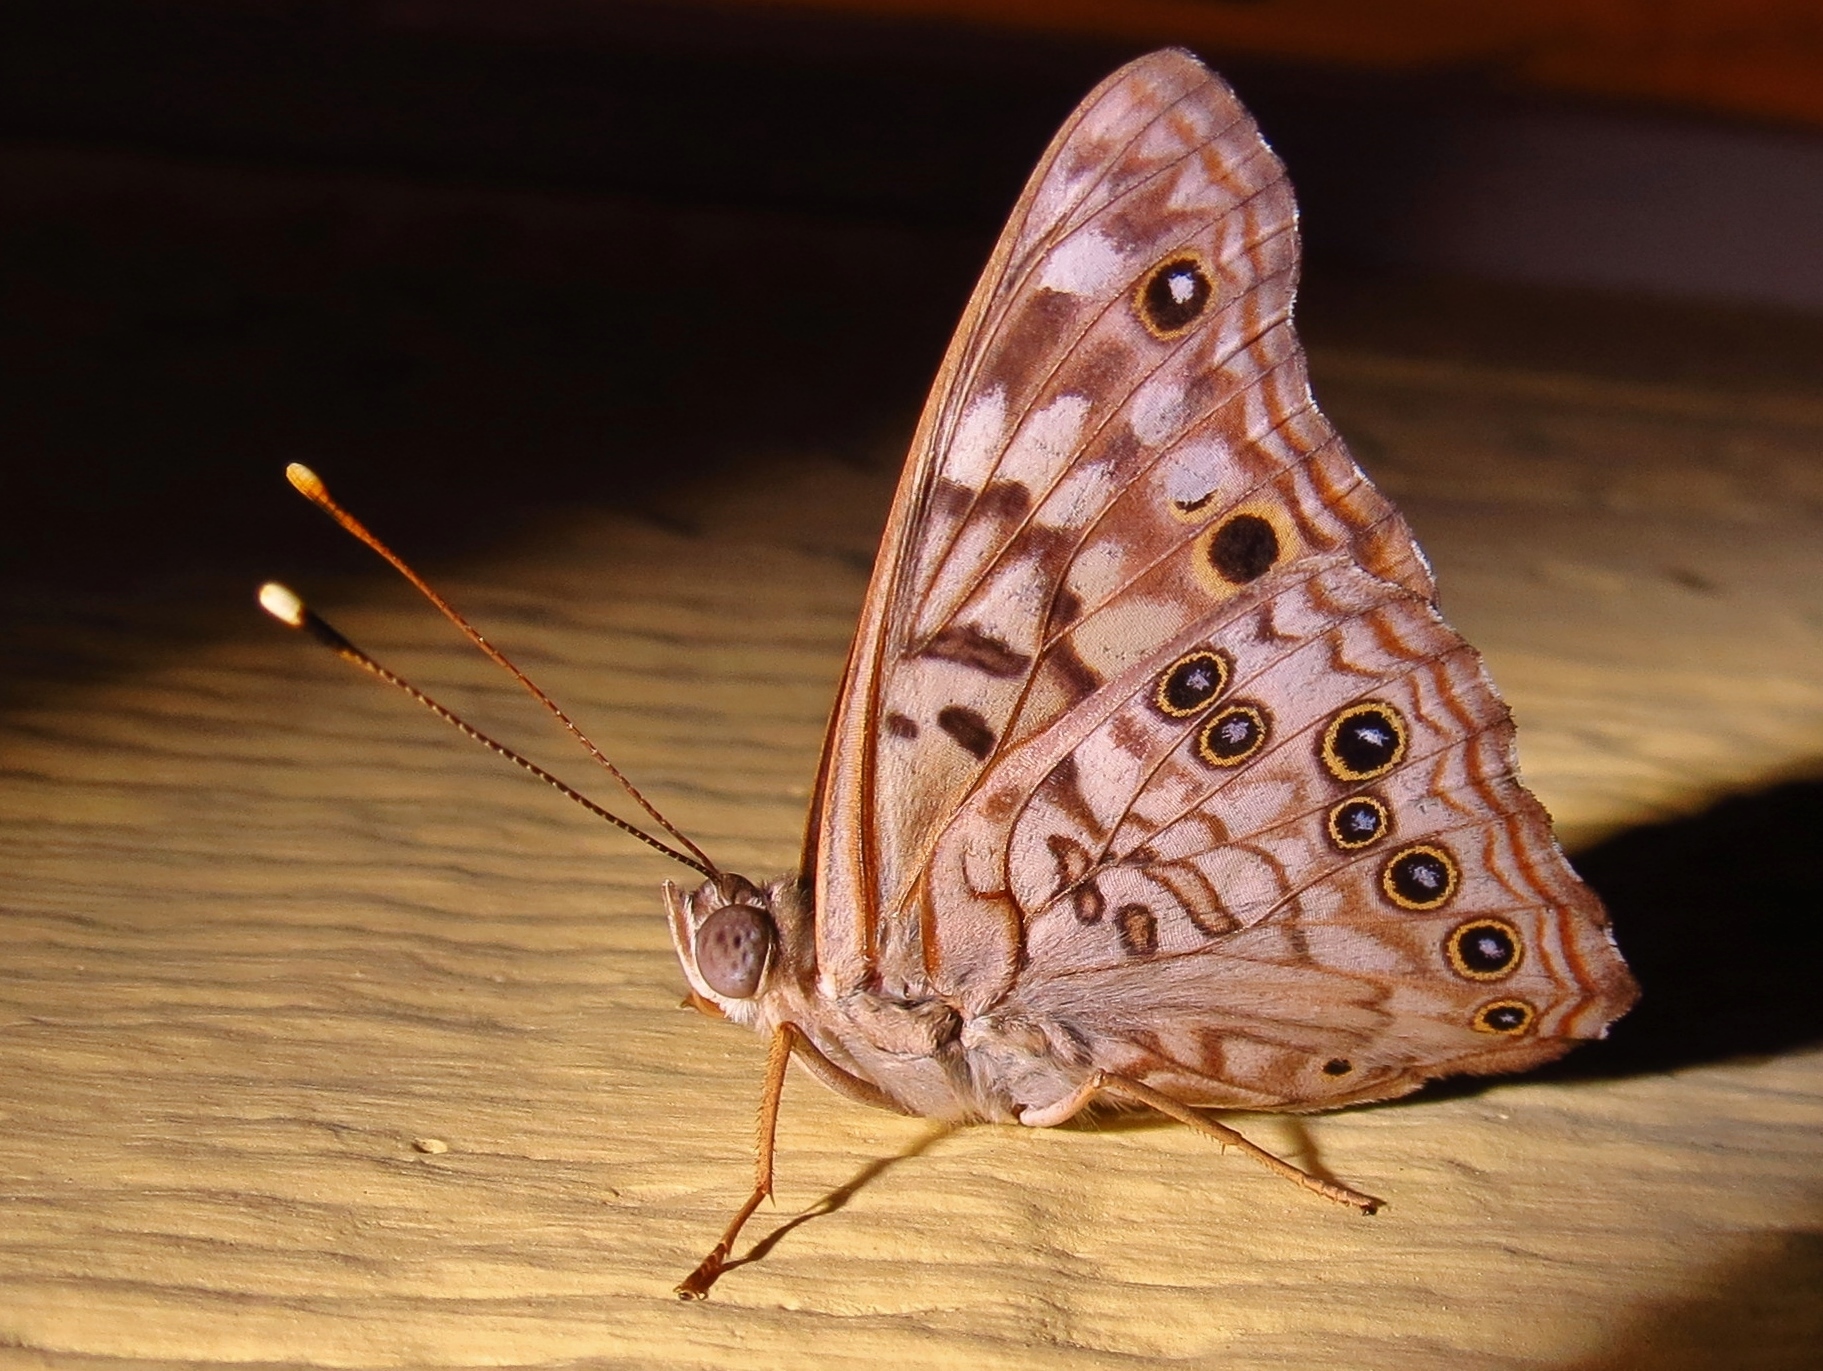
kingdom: Animalia
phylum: Arthropoda
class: Insecta
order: Lepidoptera
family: Nymphalidae
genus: Asterocampa
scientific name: Asterocampa celtis
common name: Hackberry emperor
